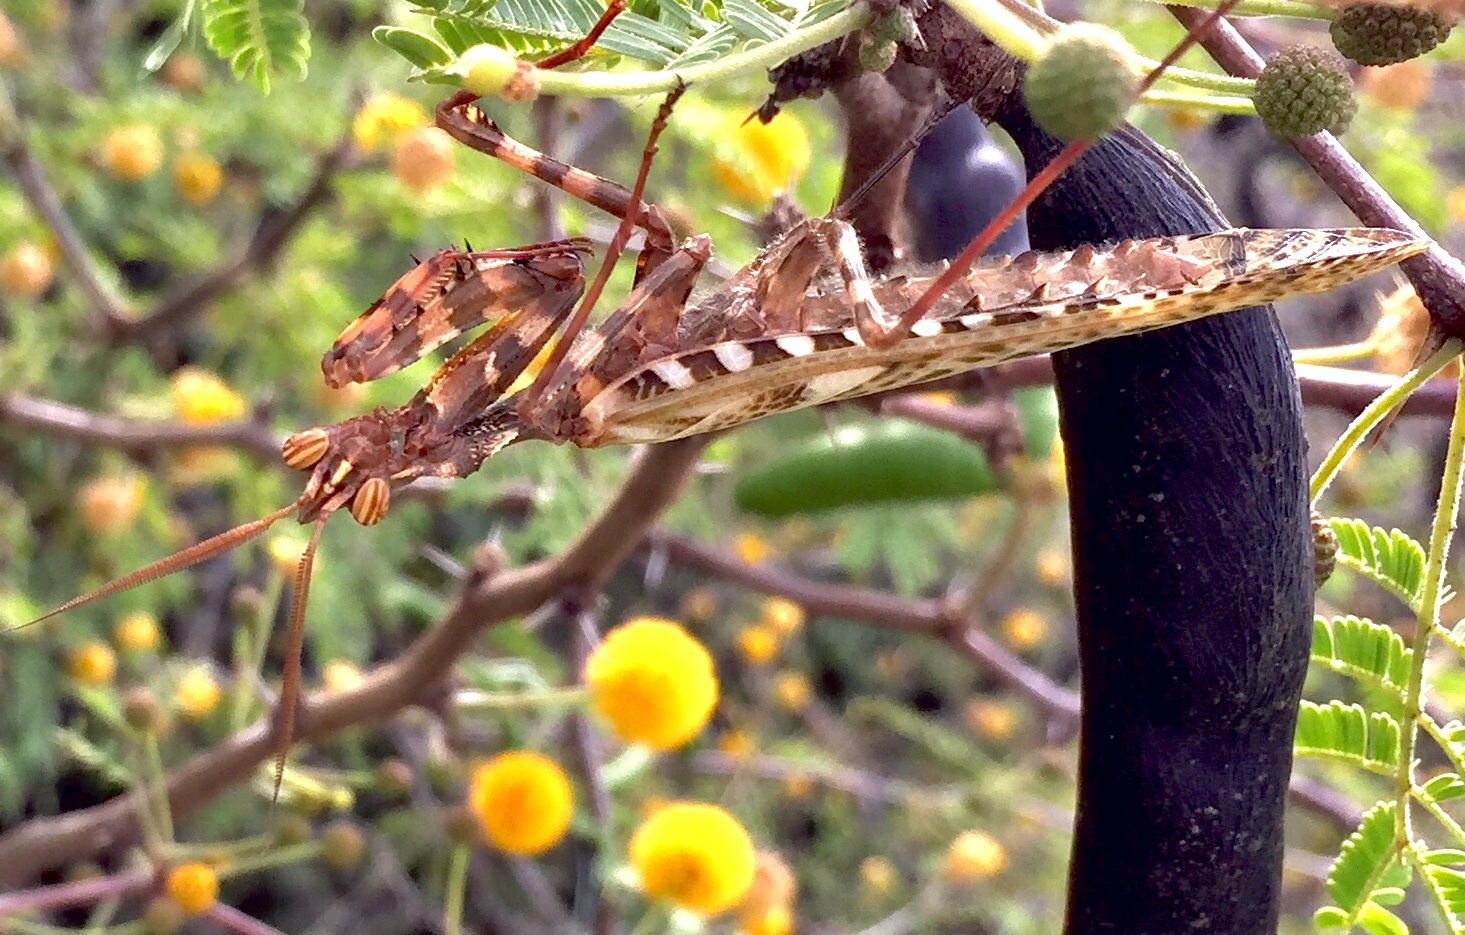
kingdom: Animalia
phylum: Arthropoda
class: Insecta
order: Mantodea
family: Empusidae
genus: Blepharopsis
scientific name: Blepharopsis mendica
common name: Devil's flower mantis
